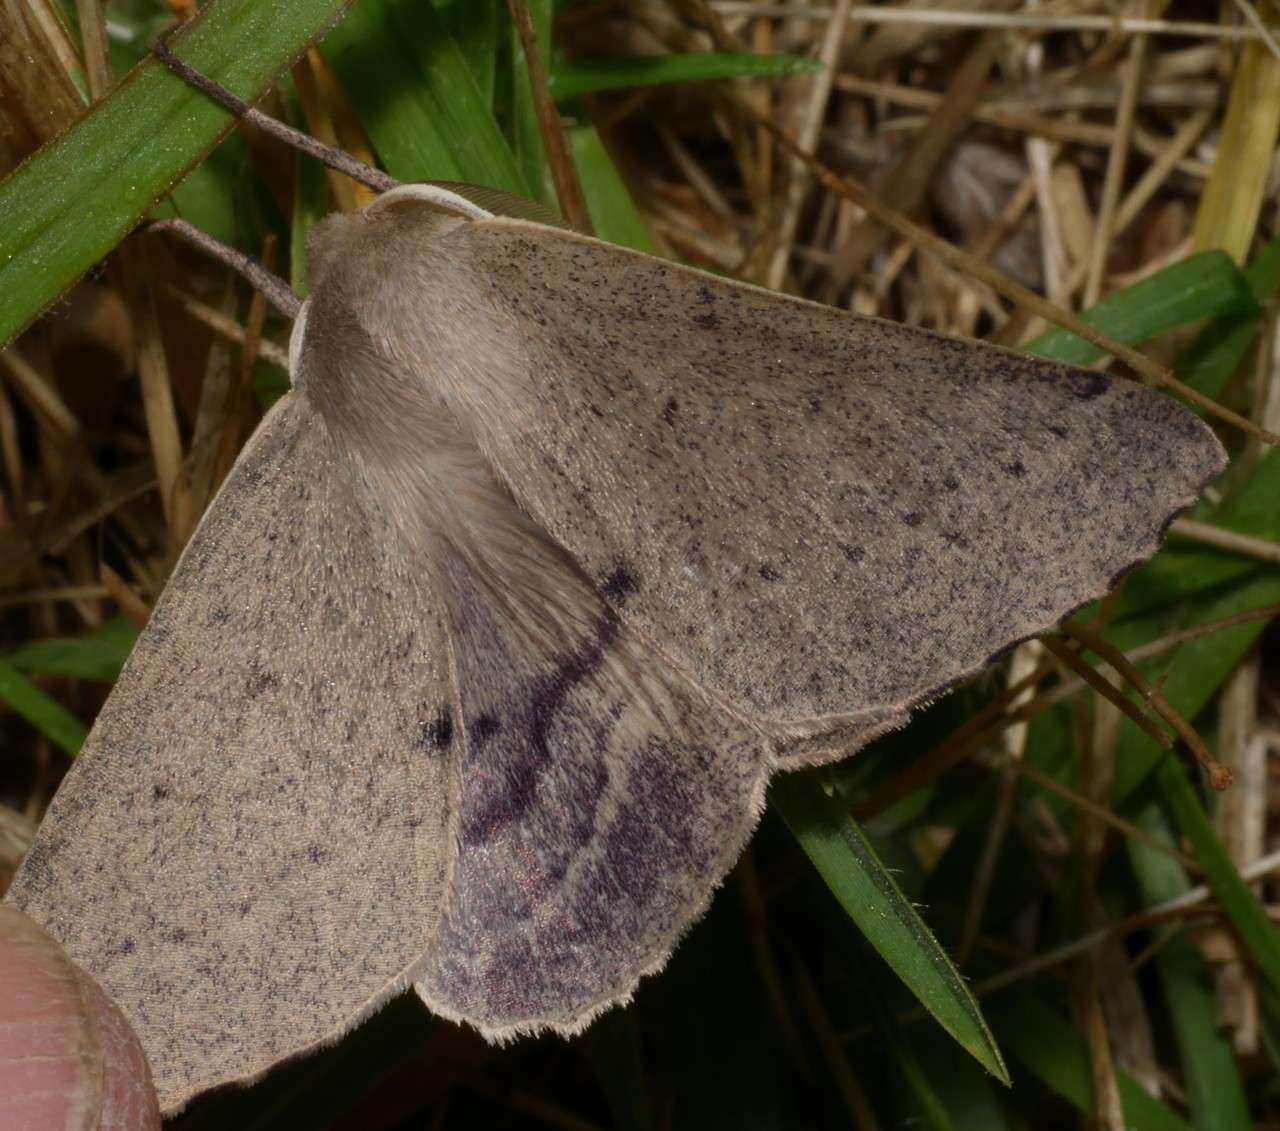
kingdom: Animalia
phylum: Arthropoda
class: Insecta
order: Lepidoptera
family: Geometridae
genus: Arhodia
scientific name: Arhodia lasiocamparia
